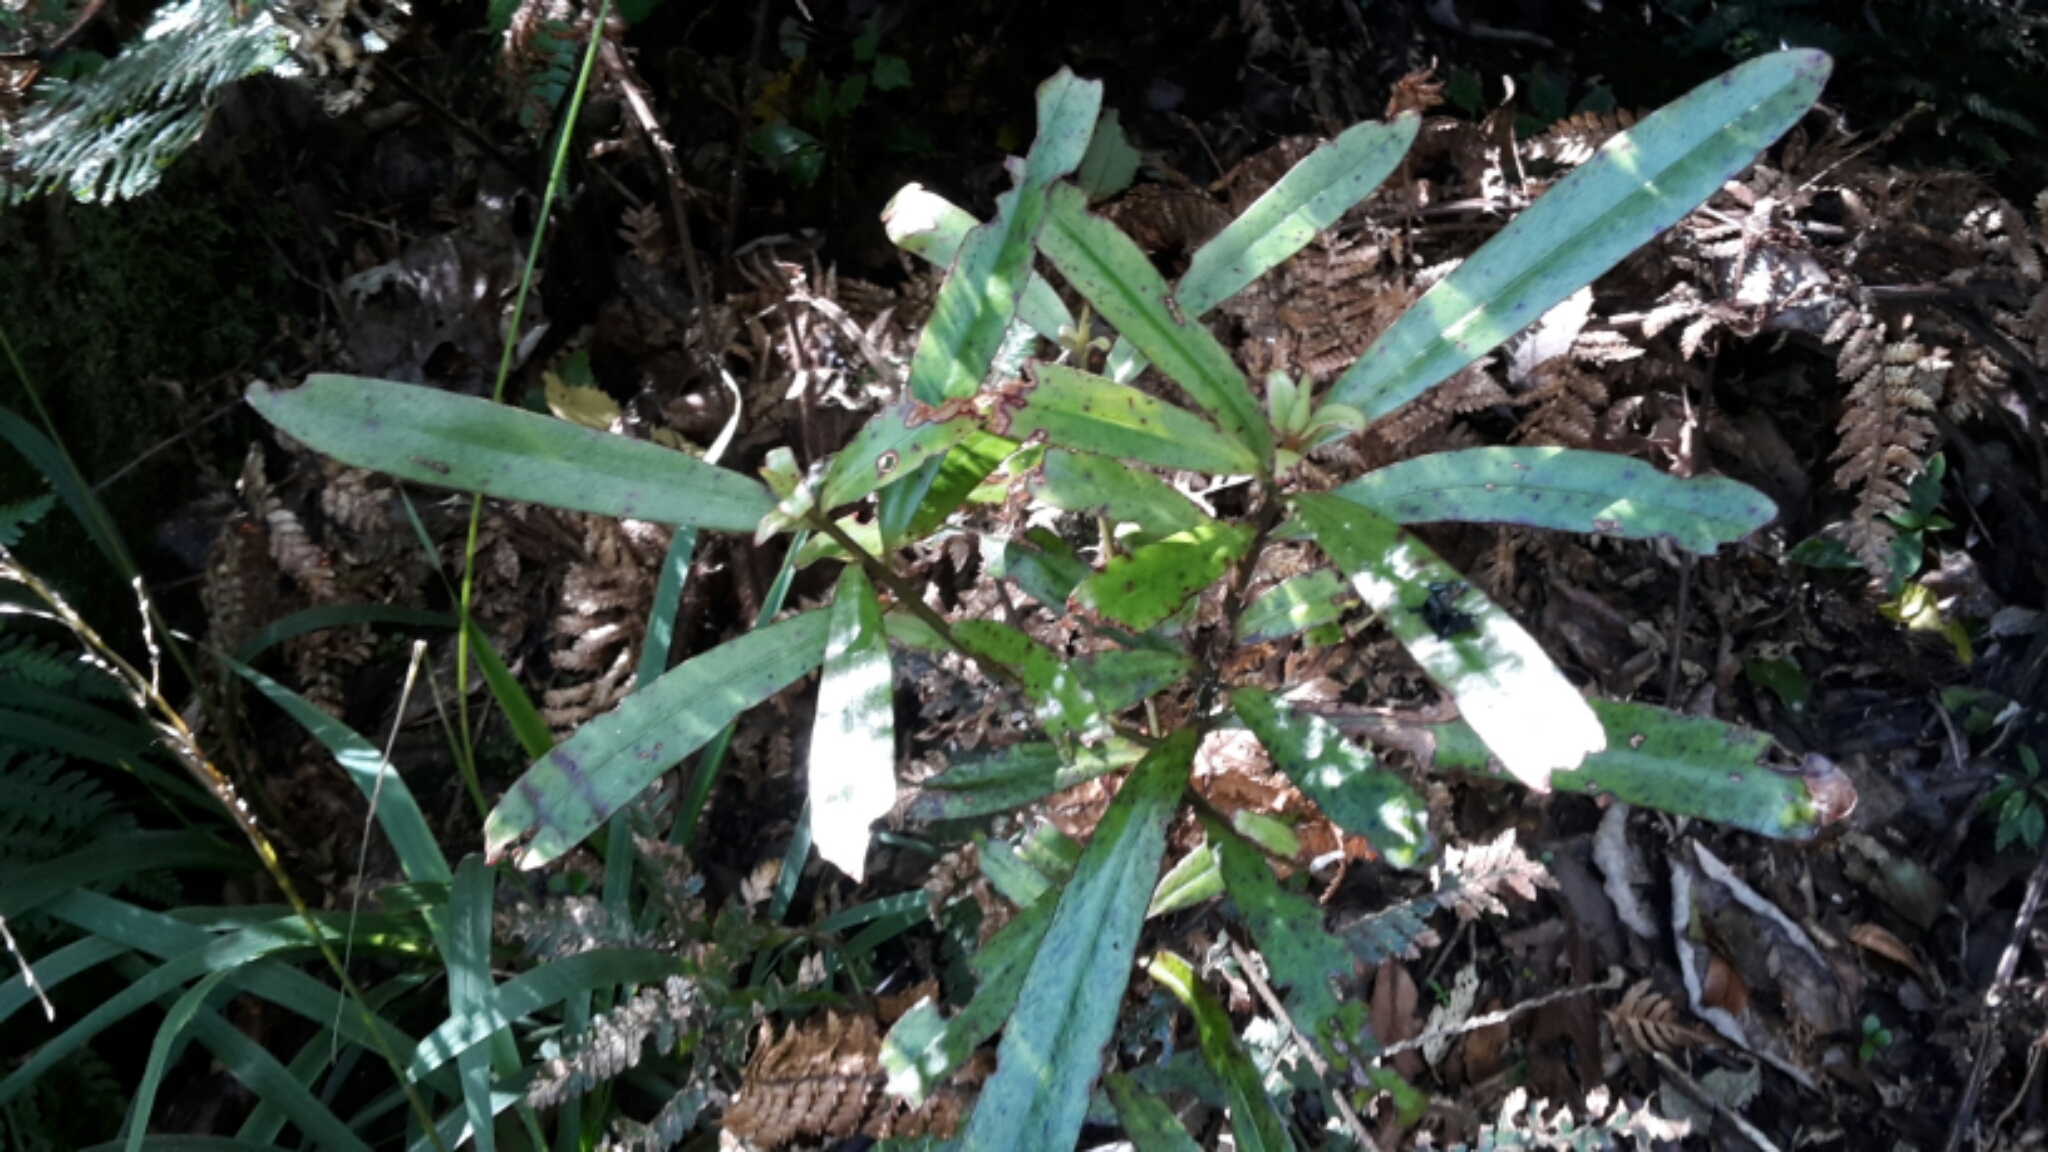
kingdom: Plantae
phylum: Tracheophyta
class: Magnoliopsida
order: Ericales
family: Primulaceae
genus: Myrsine
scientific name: Myrsine salicina
